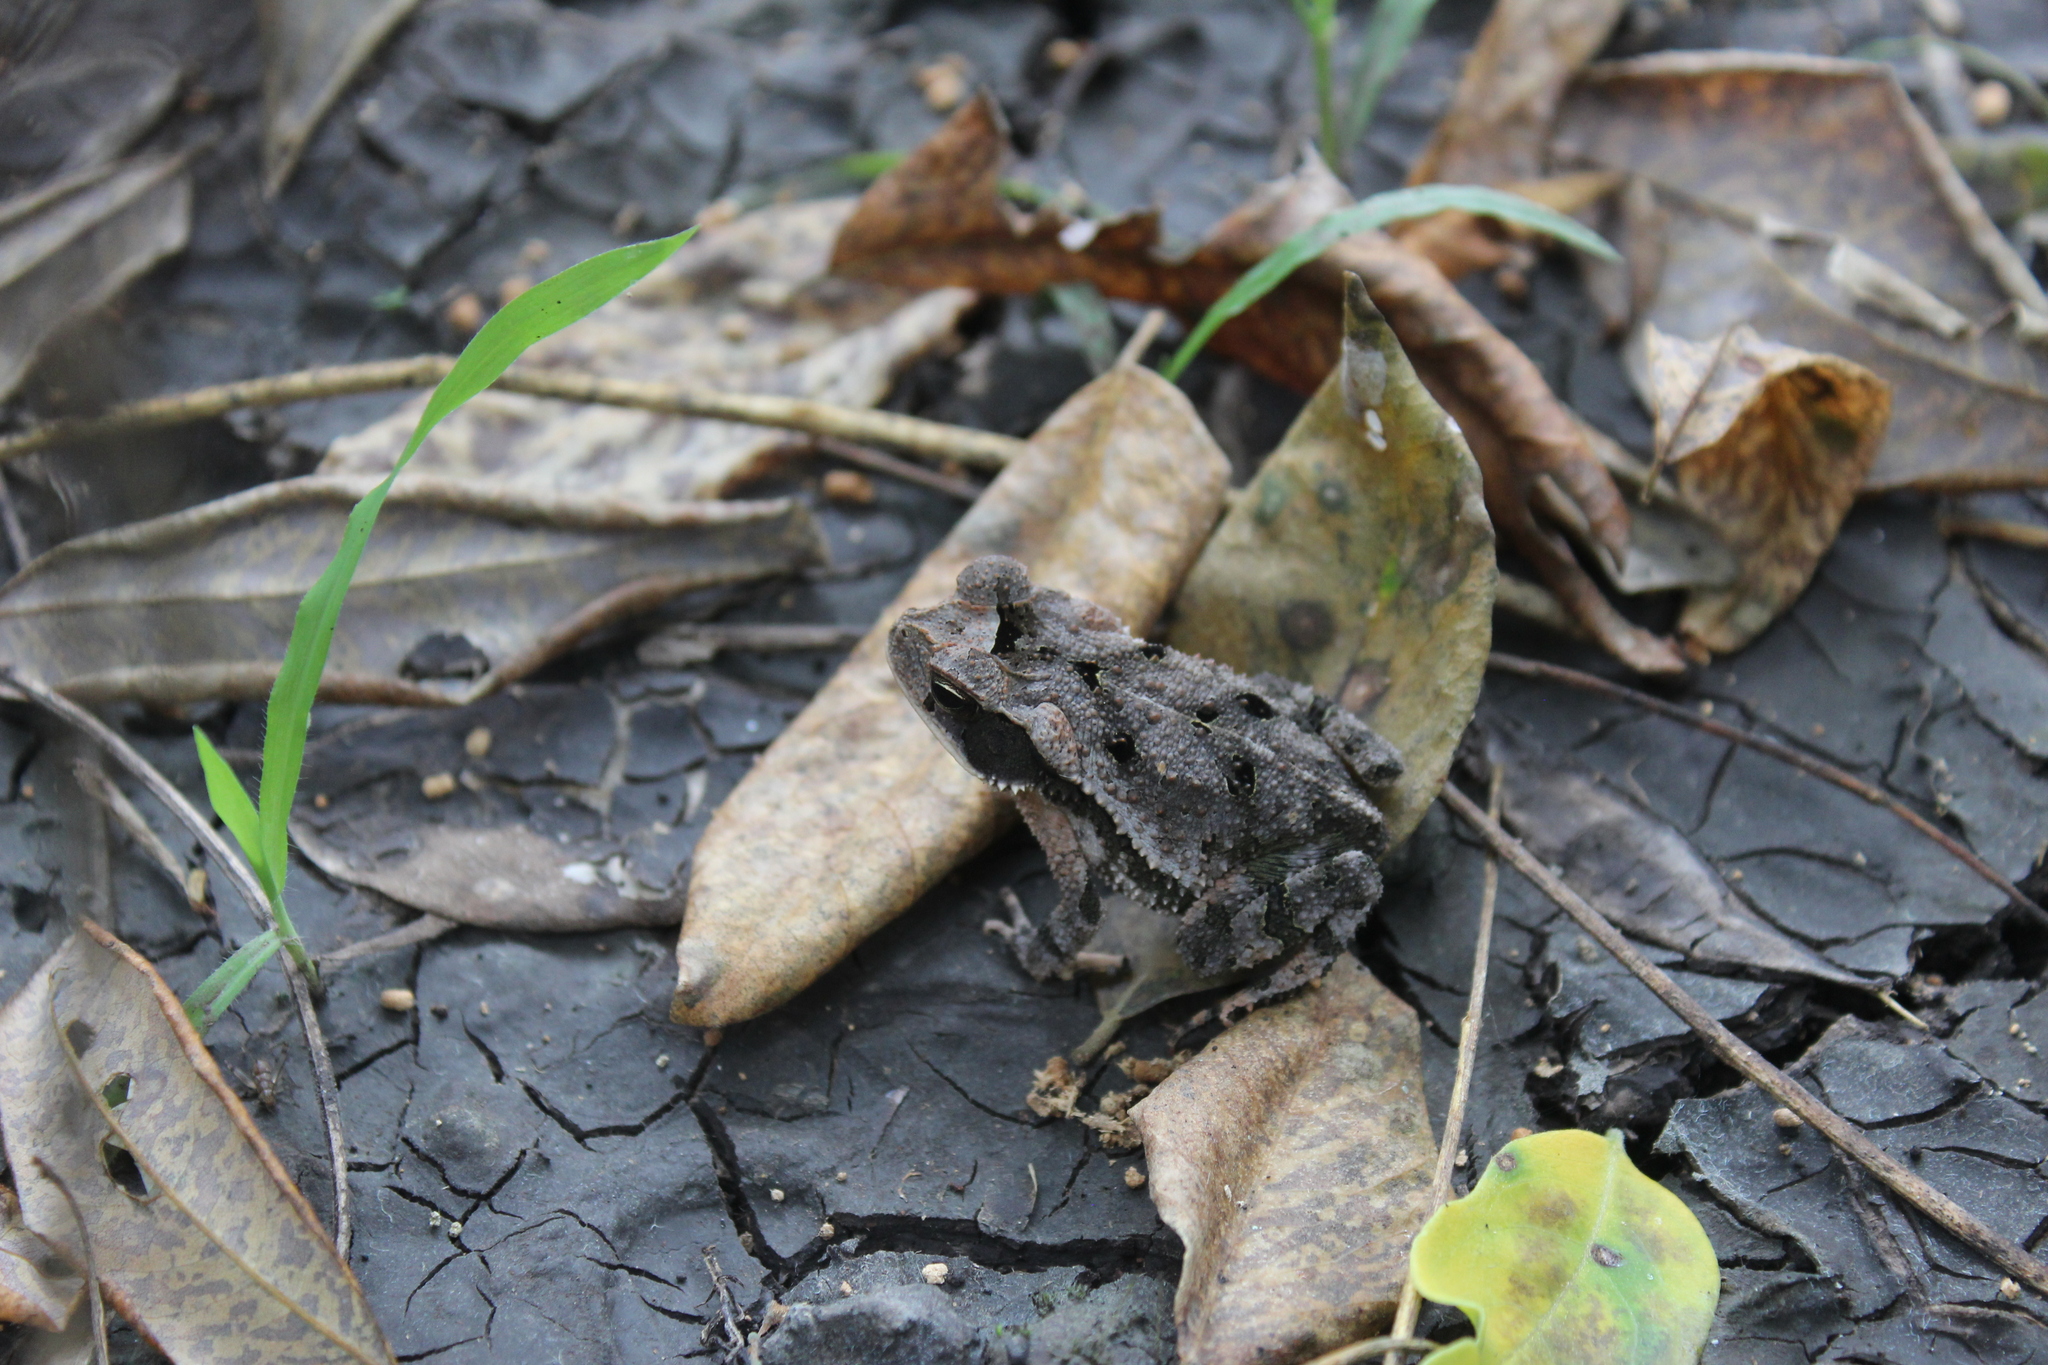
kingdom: Animalia
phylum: Chordata
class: Amphibia
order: Anura
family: Bufonidae
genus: Incilius
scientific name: Incilius valliceps
